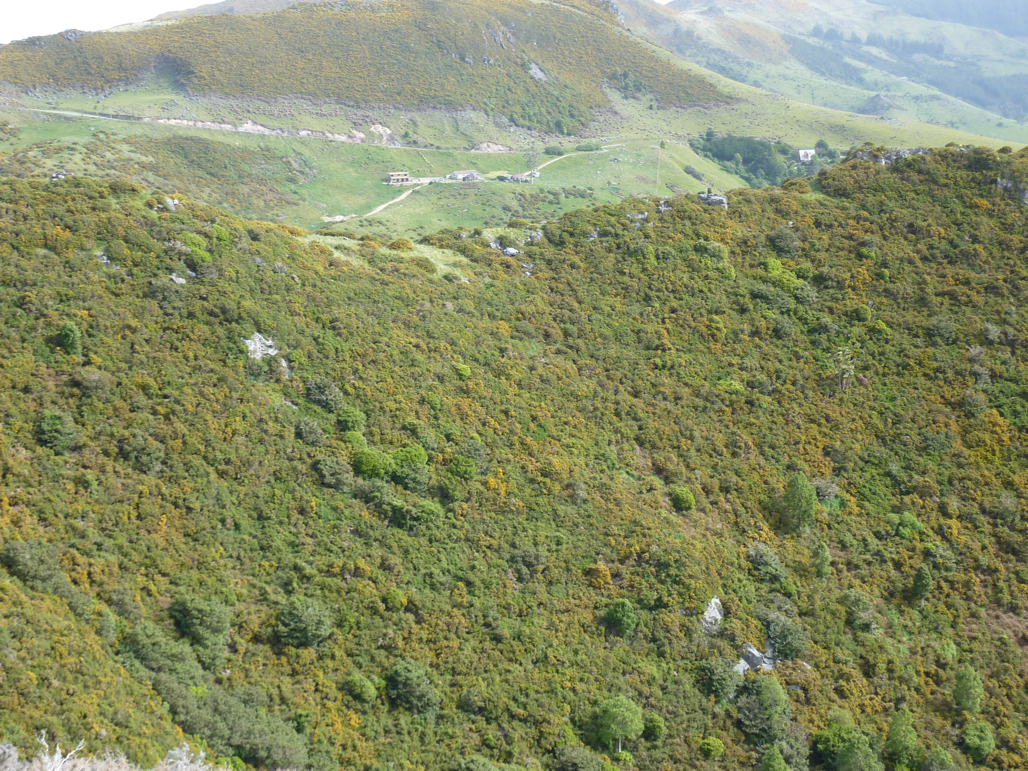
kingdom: Plantae
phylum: Tracheophyta
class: Magnoliopsida
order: Fabales
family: Fabaceae
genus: Ulex
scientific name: Ulex europaeus
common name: Common gorse
